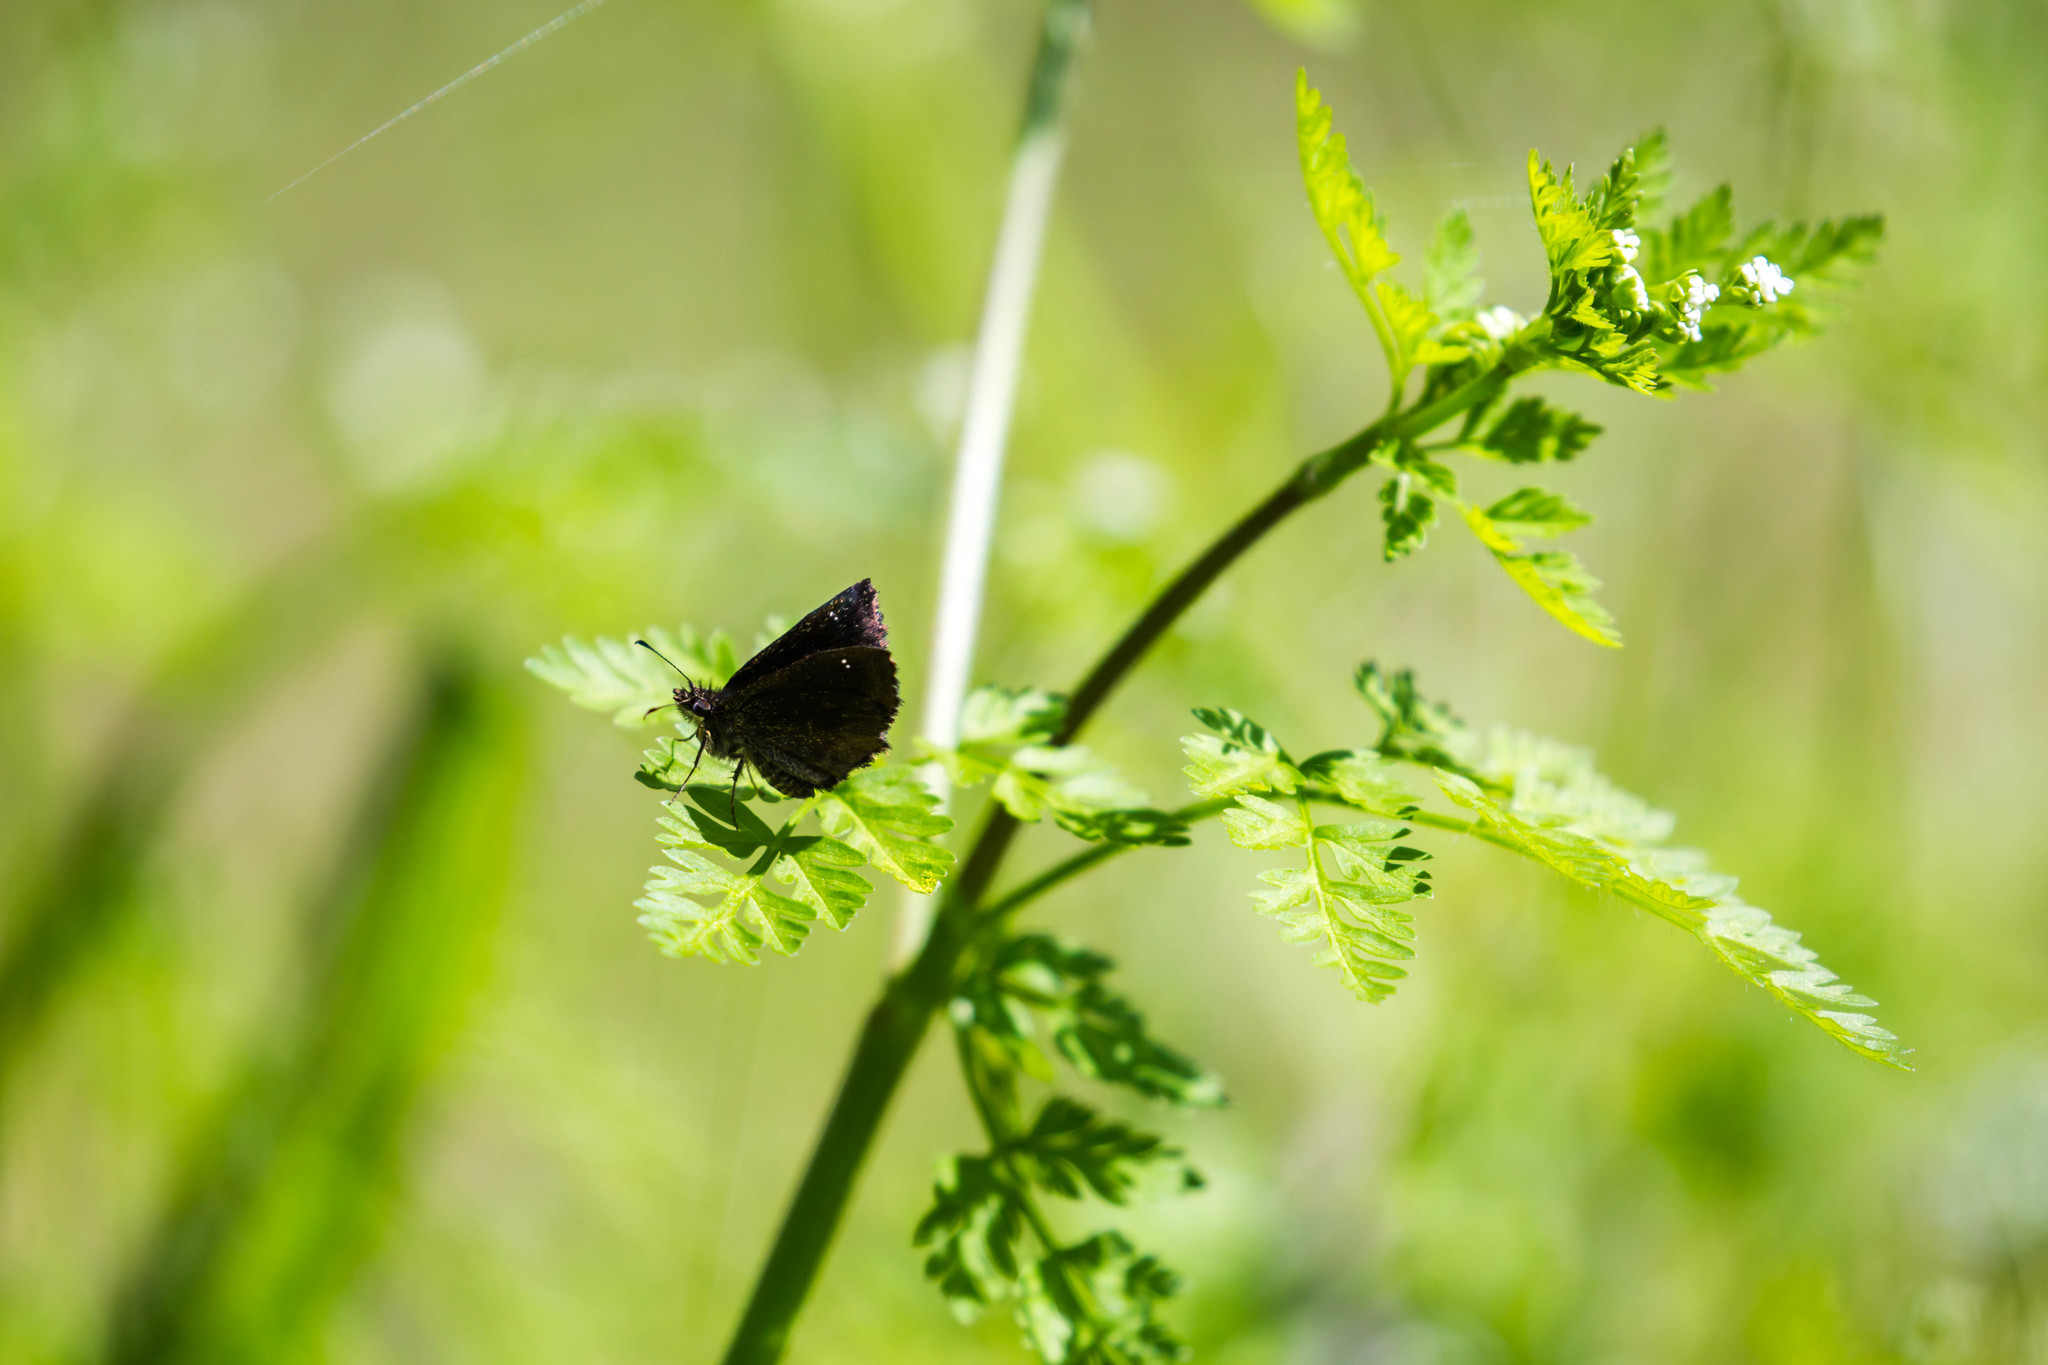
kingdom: Animalia
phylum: Arthropoda
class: Insecta
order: Lepidoptera
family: Hesperiidae
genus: Staphylus
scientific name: Staphylus mazans
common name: Mazans scallopwing
